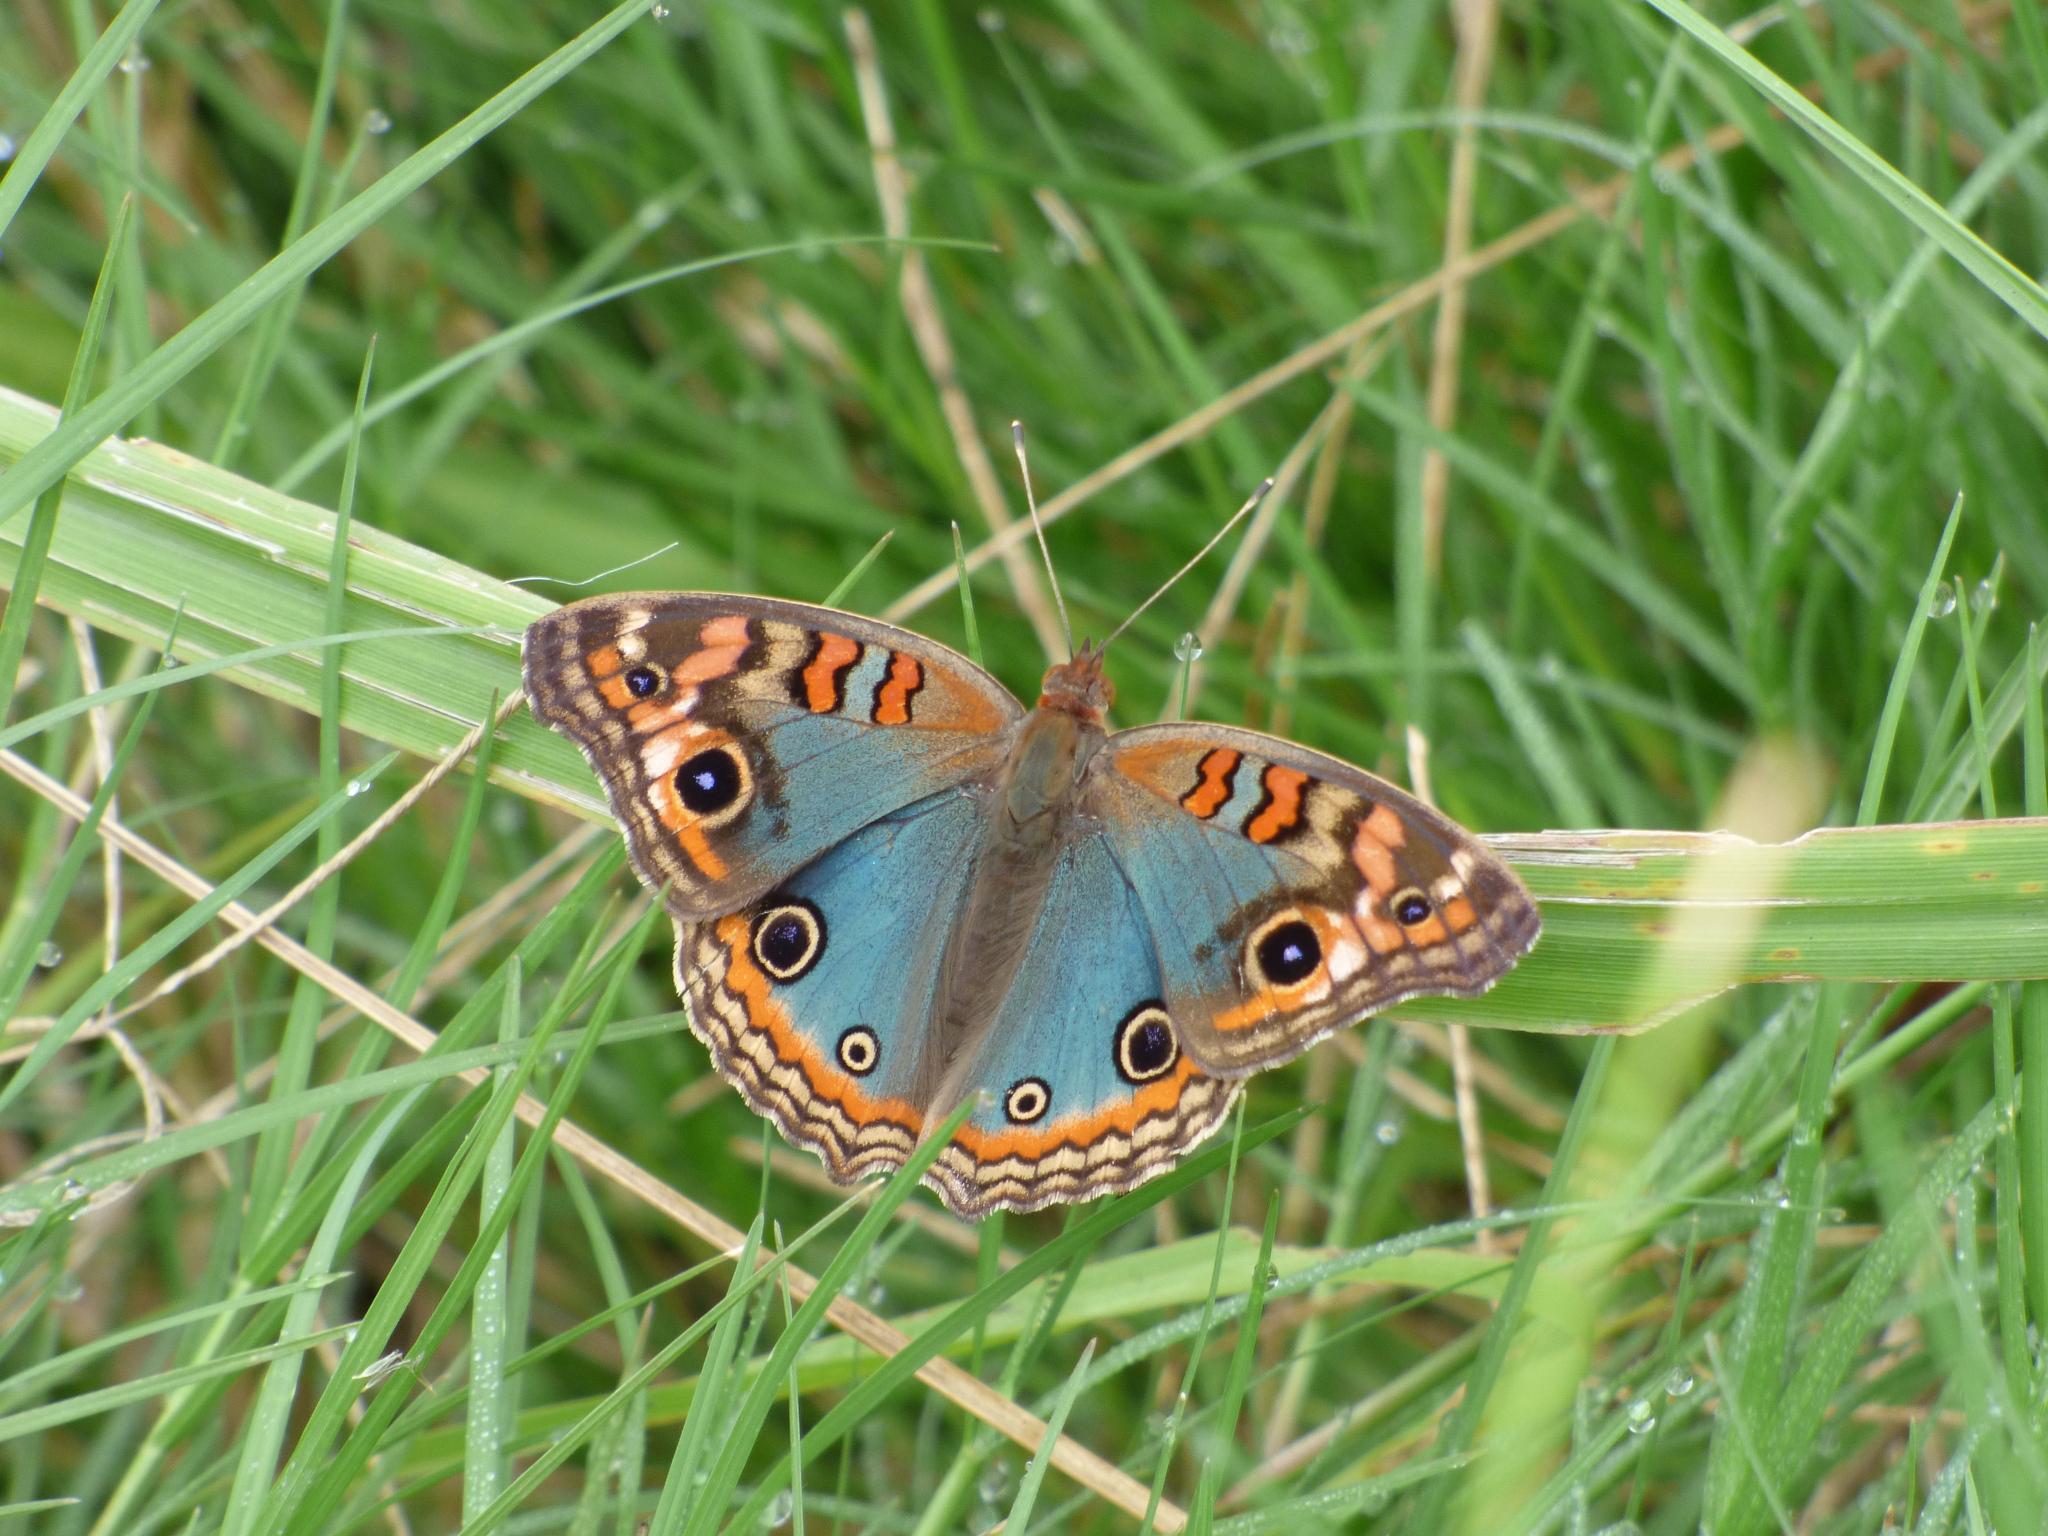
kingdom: Animalia
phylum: Arthropoda
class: Insecta
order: Lepidoptera
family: Nymphalidae
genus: Junonia
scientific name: Junonia lavinia
